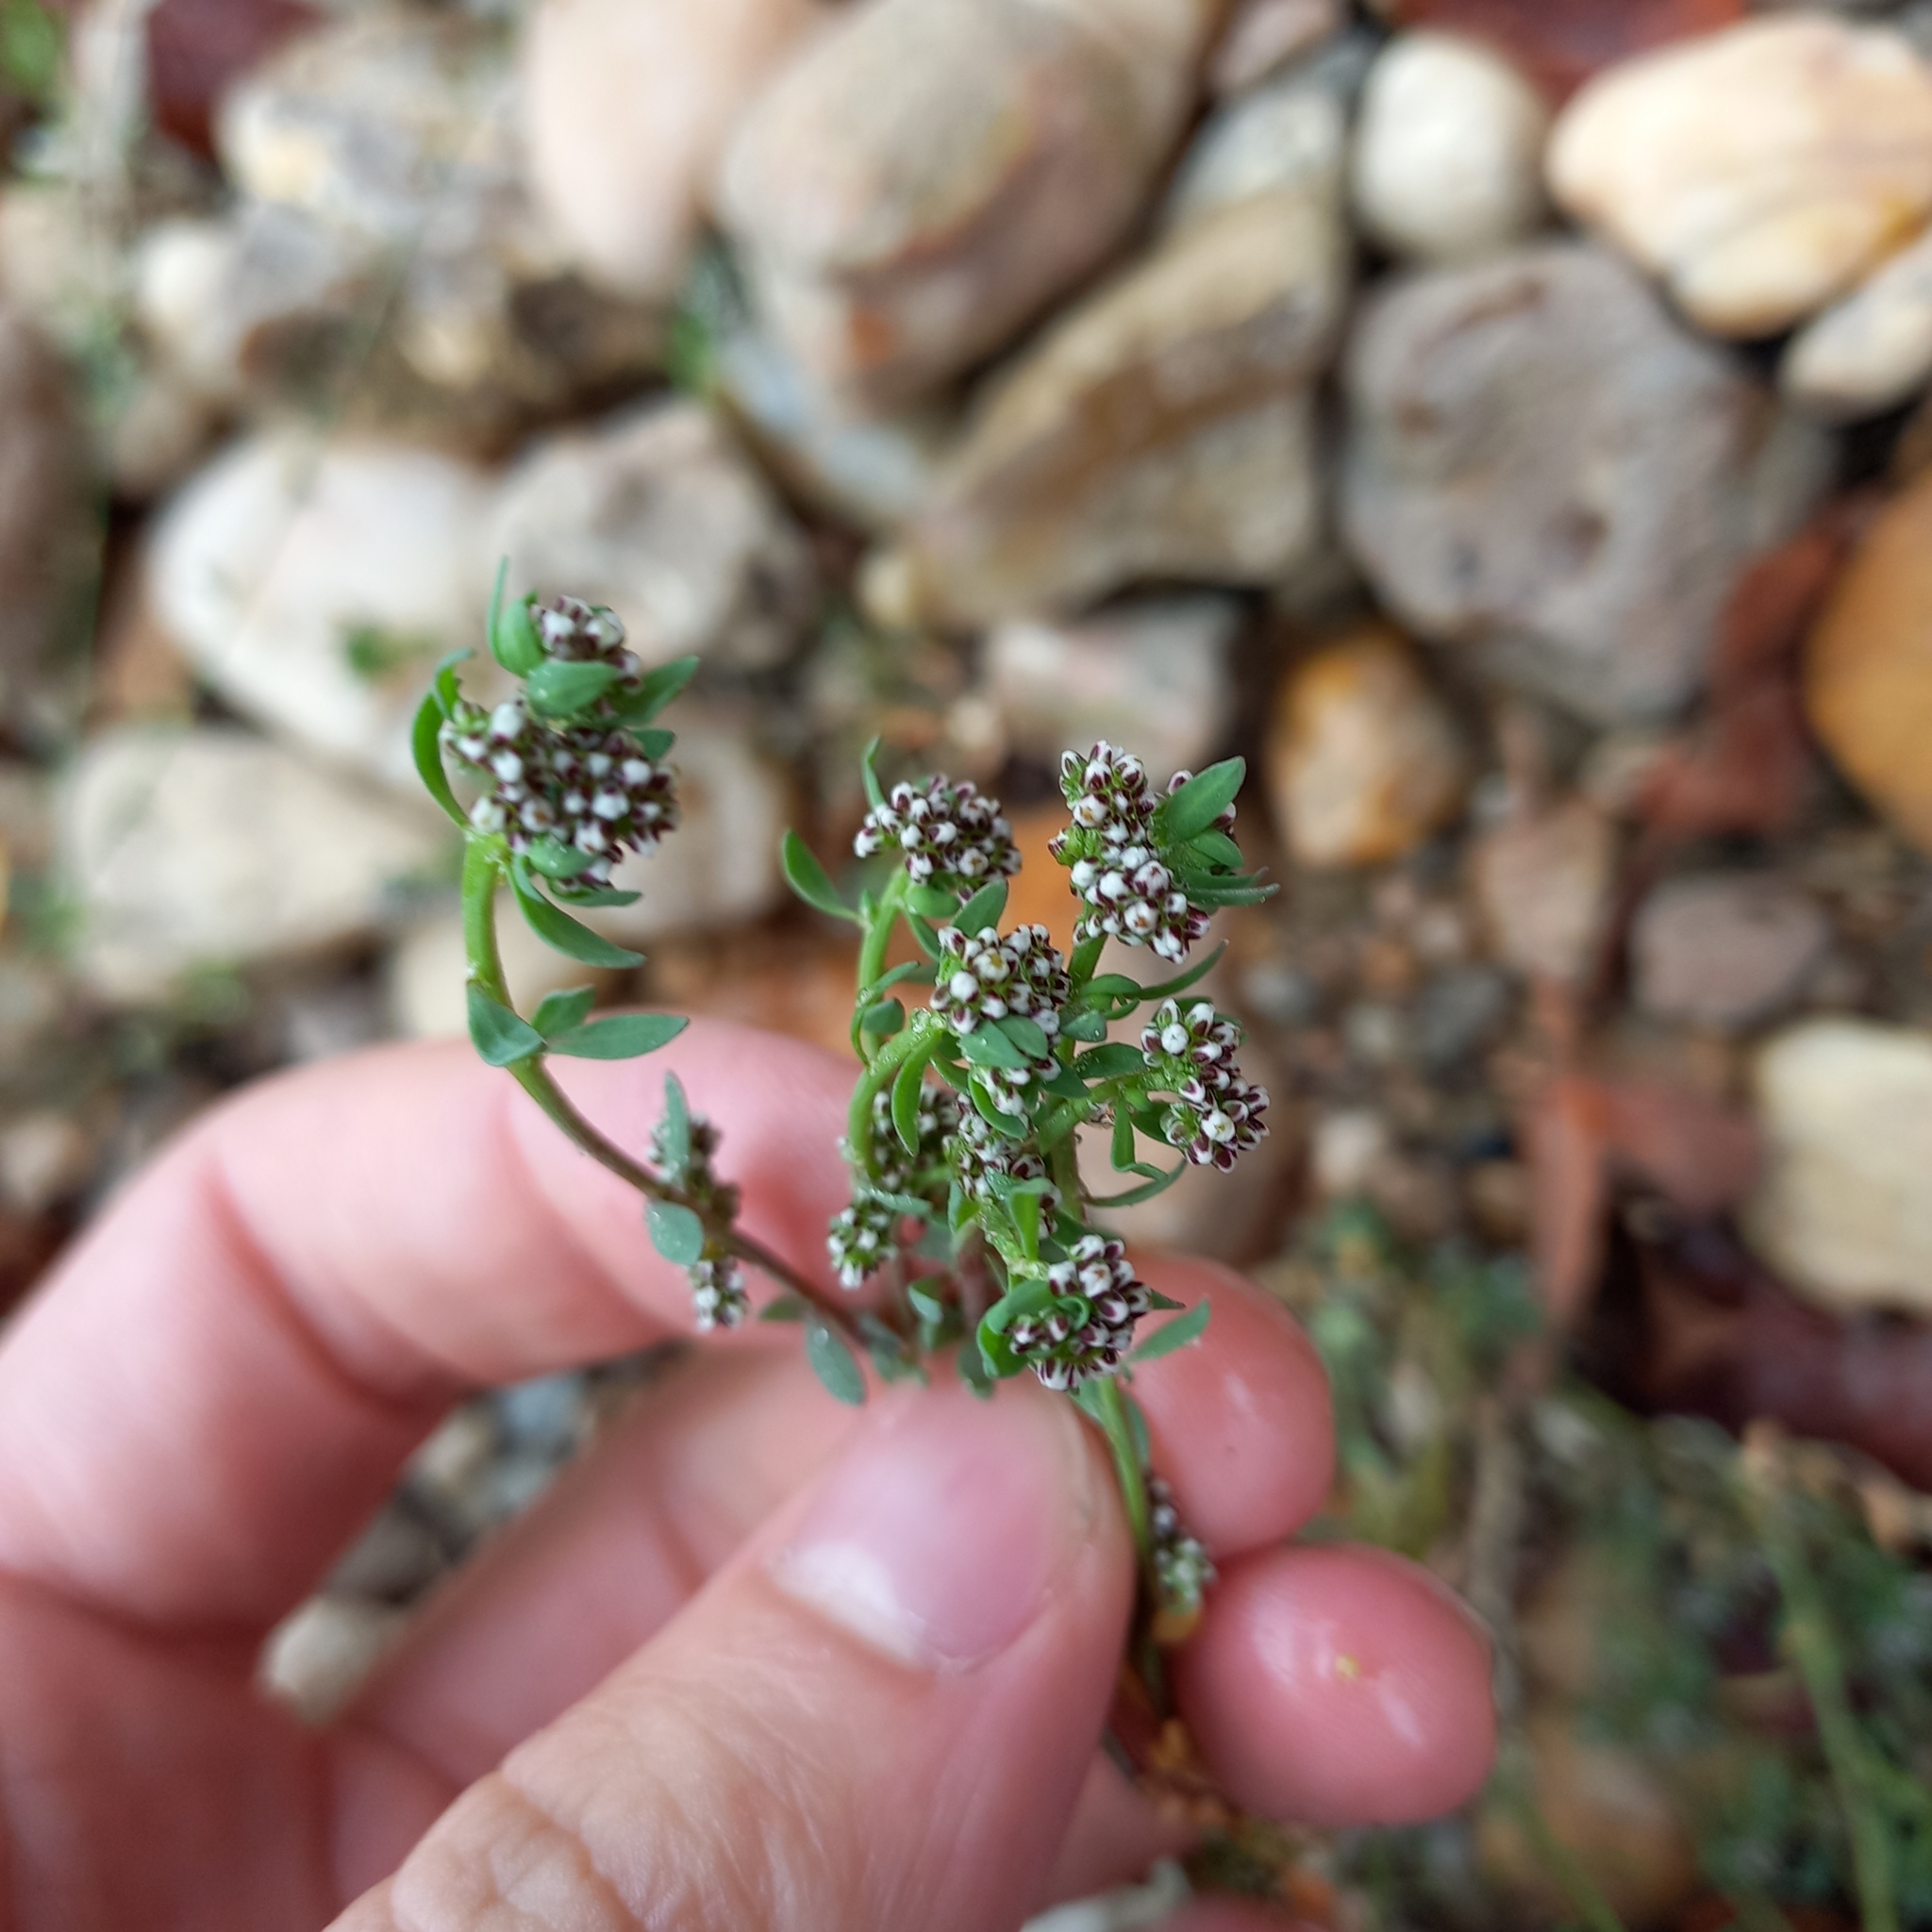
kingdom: Plantae
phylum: Tracheophyta
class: Magnoliopsida
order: Caryophyllales
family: Caryophyllaceae
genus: Corrigiola
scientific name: Corrigiola litoralis
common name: Strapwort
